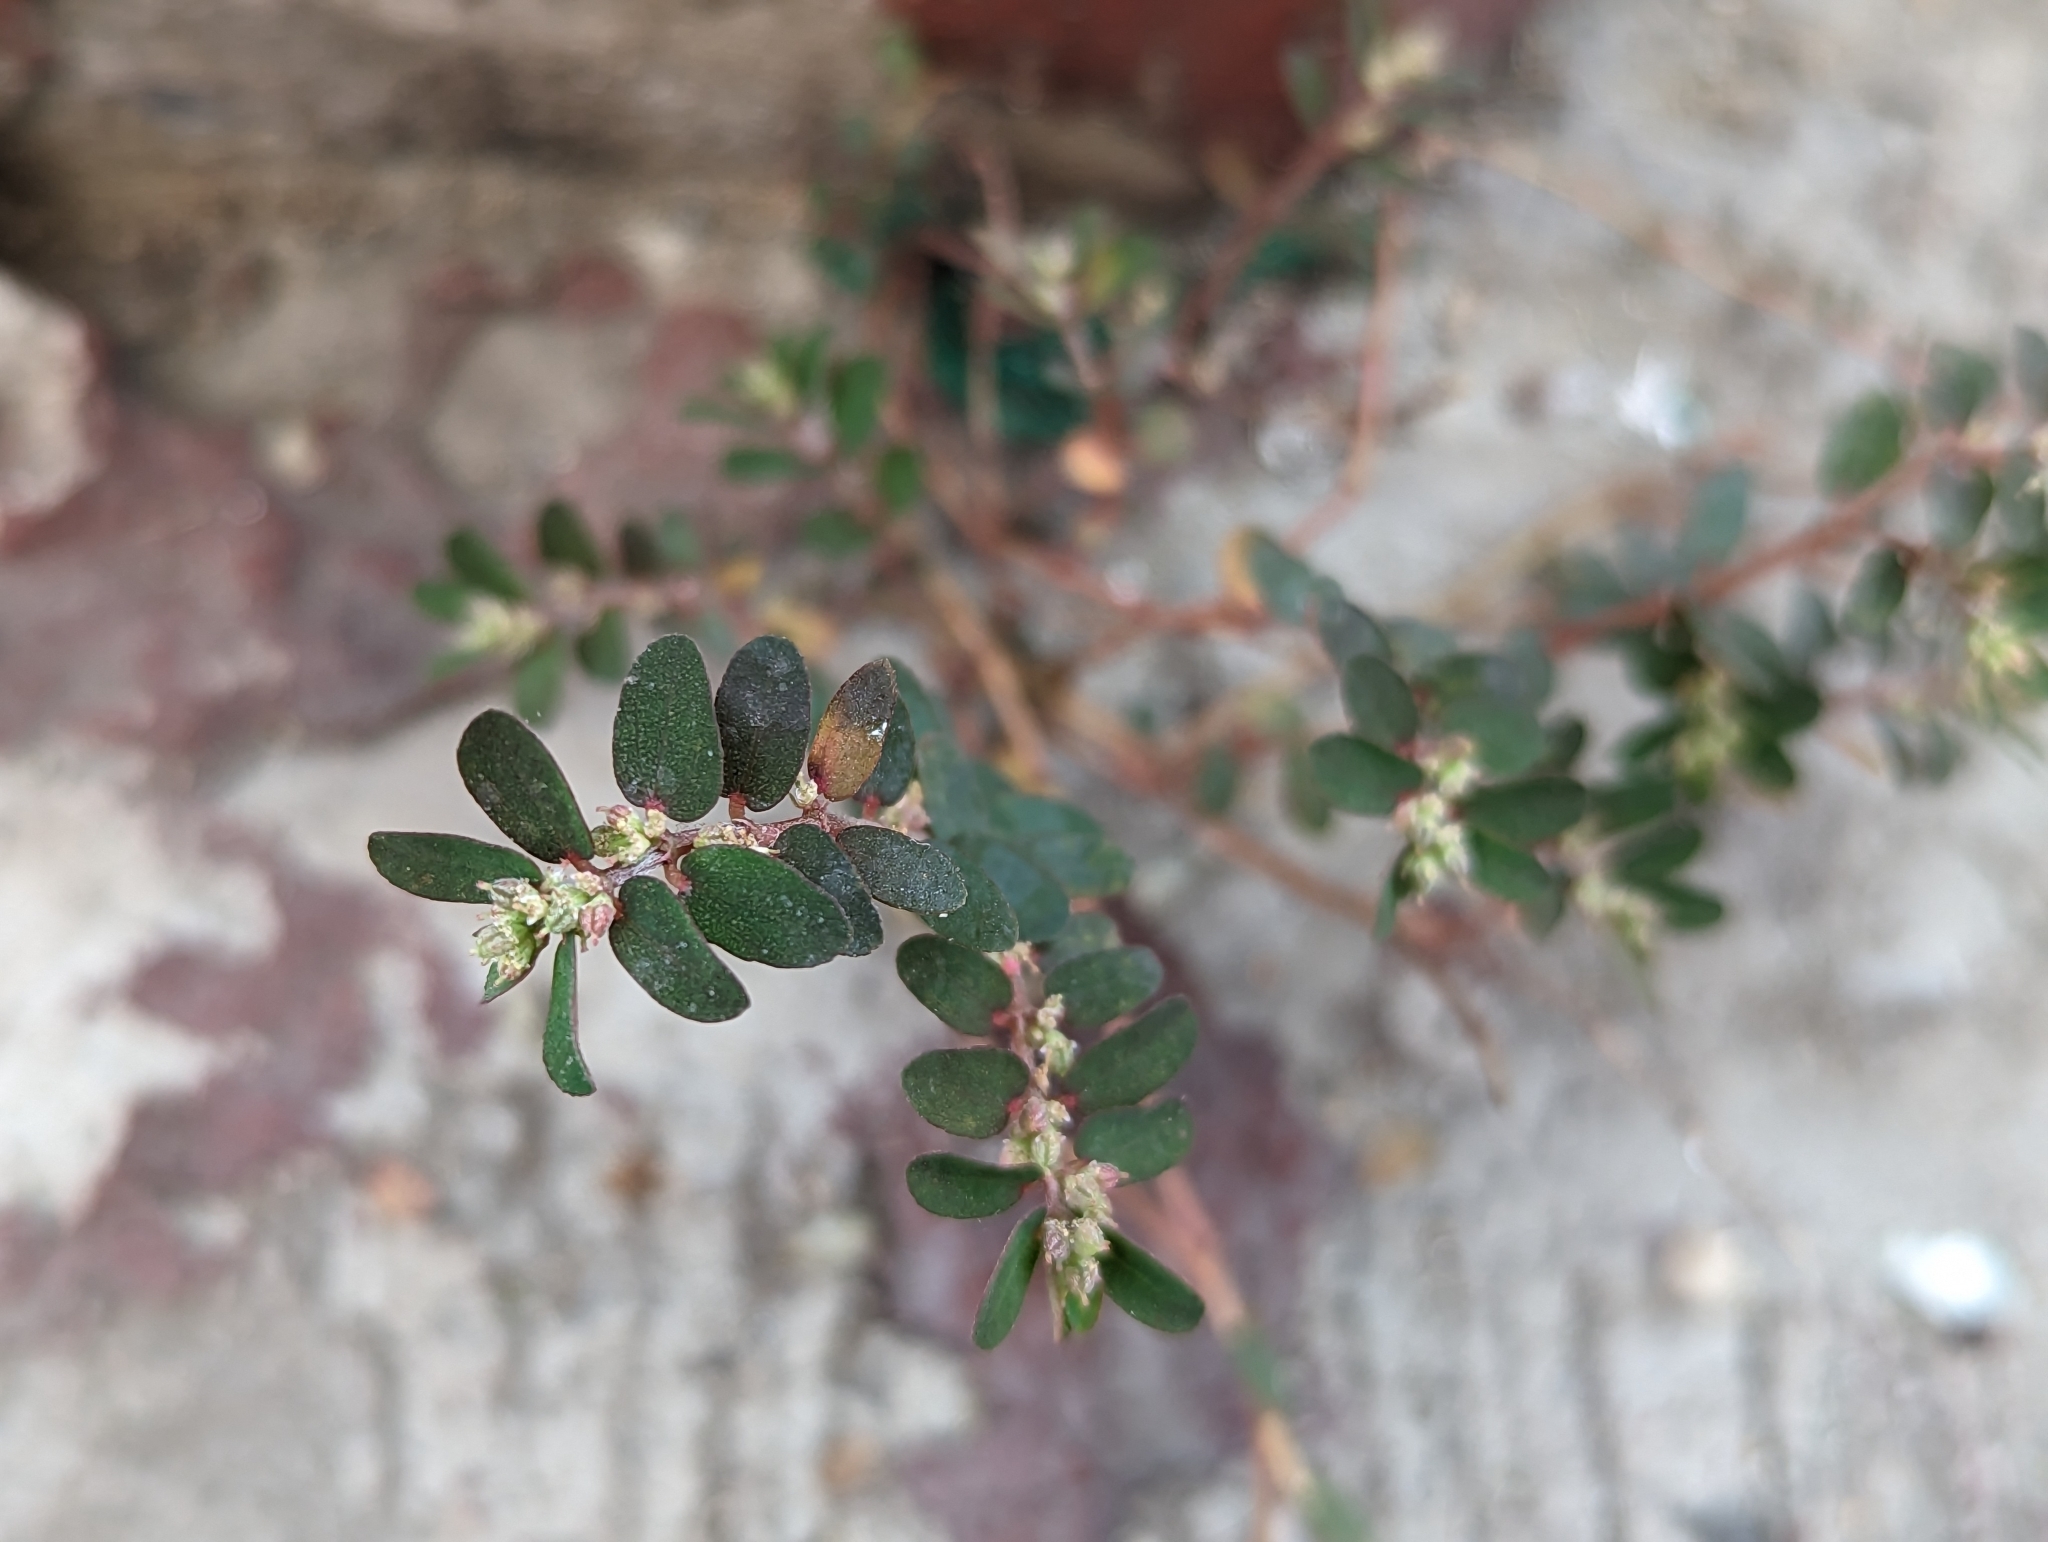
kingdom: Plantae
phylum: Tracheophyta
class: Magnoliopsida
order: Malpighiales
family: Euphorbiaceae
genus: Euphorbia
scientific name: Euphorbia thymifolia
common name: Gulf sandmat
